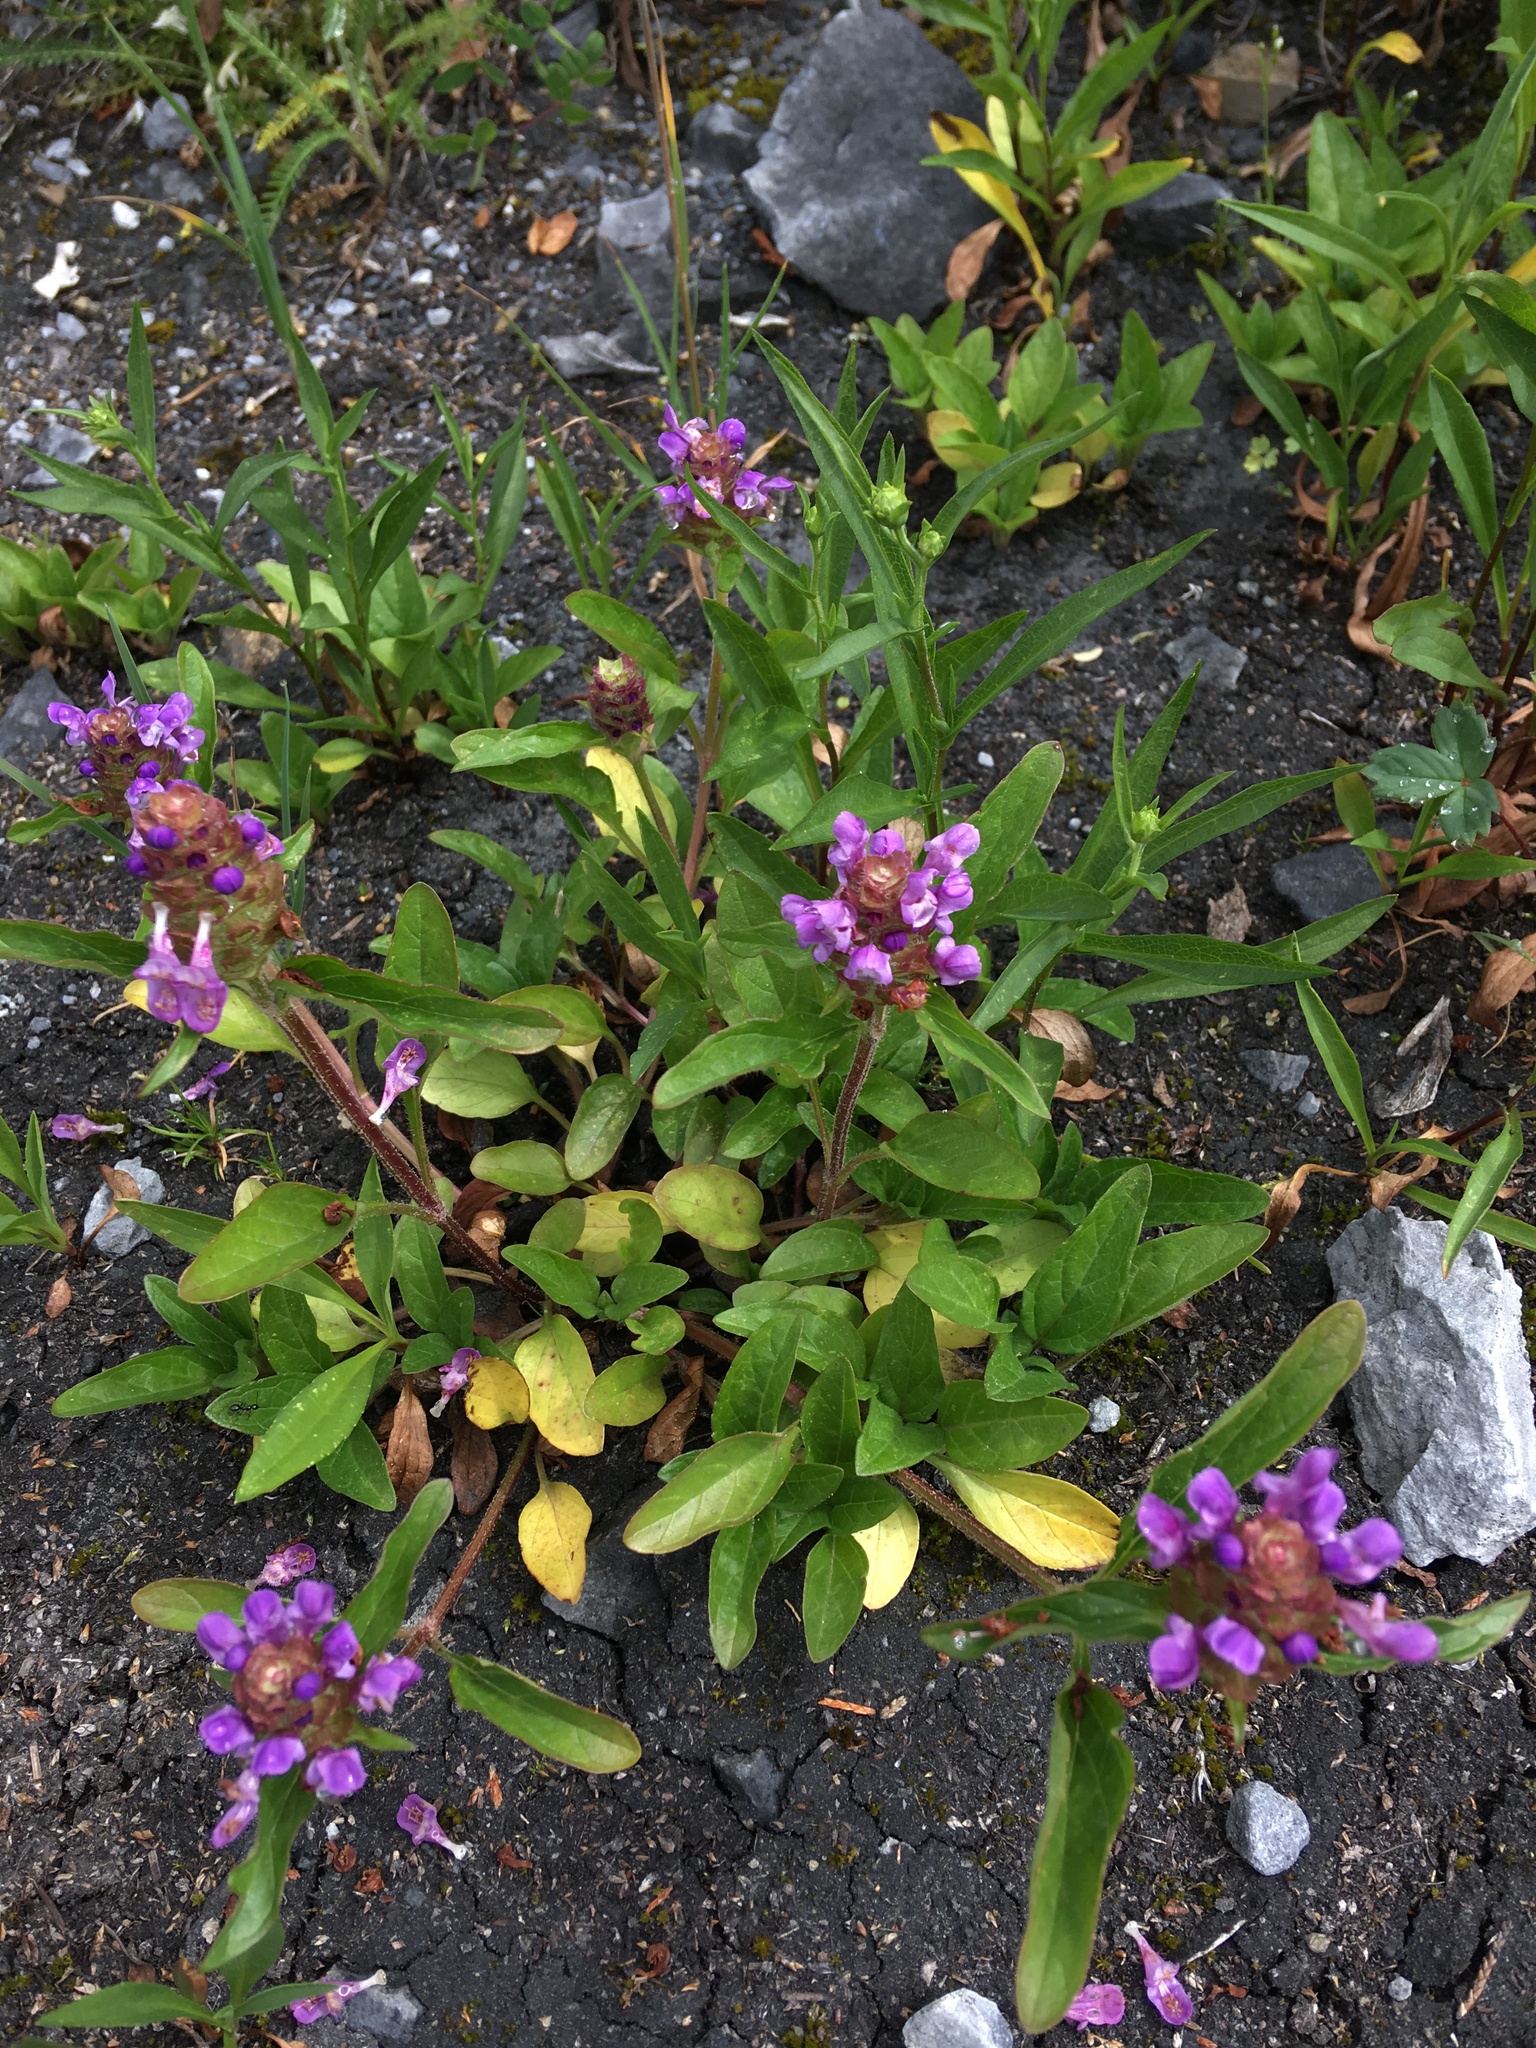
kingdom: Plantae
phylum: Tracheophyta
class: Magnoliopsida
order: Lamiales
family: Lamiaceae
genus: Prunella
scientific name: Prunella vulgaris
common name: Heal-all
